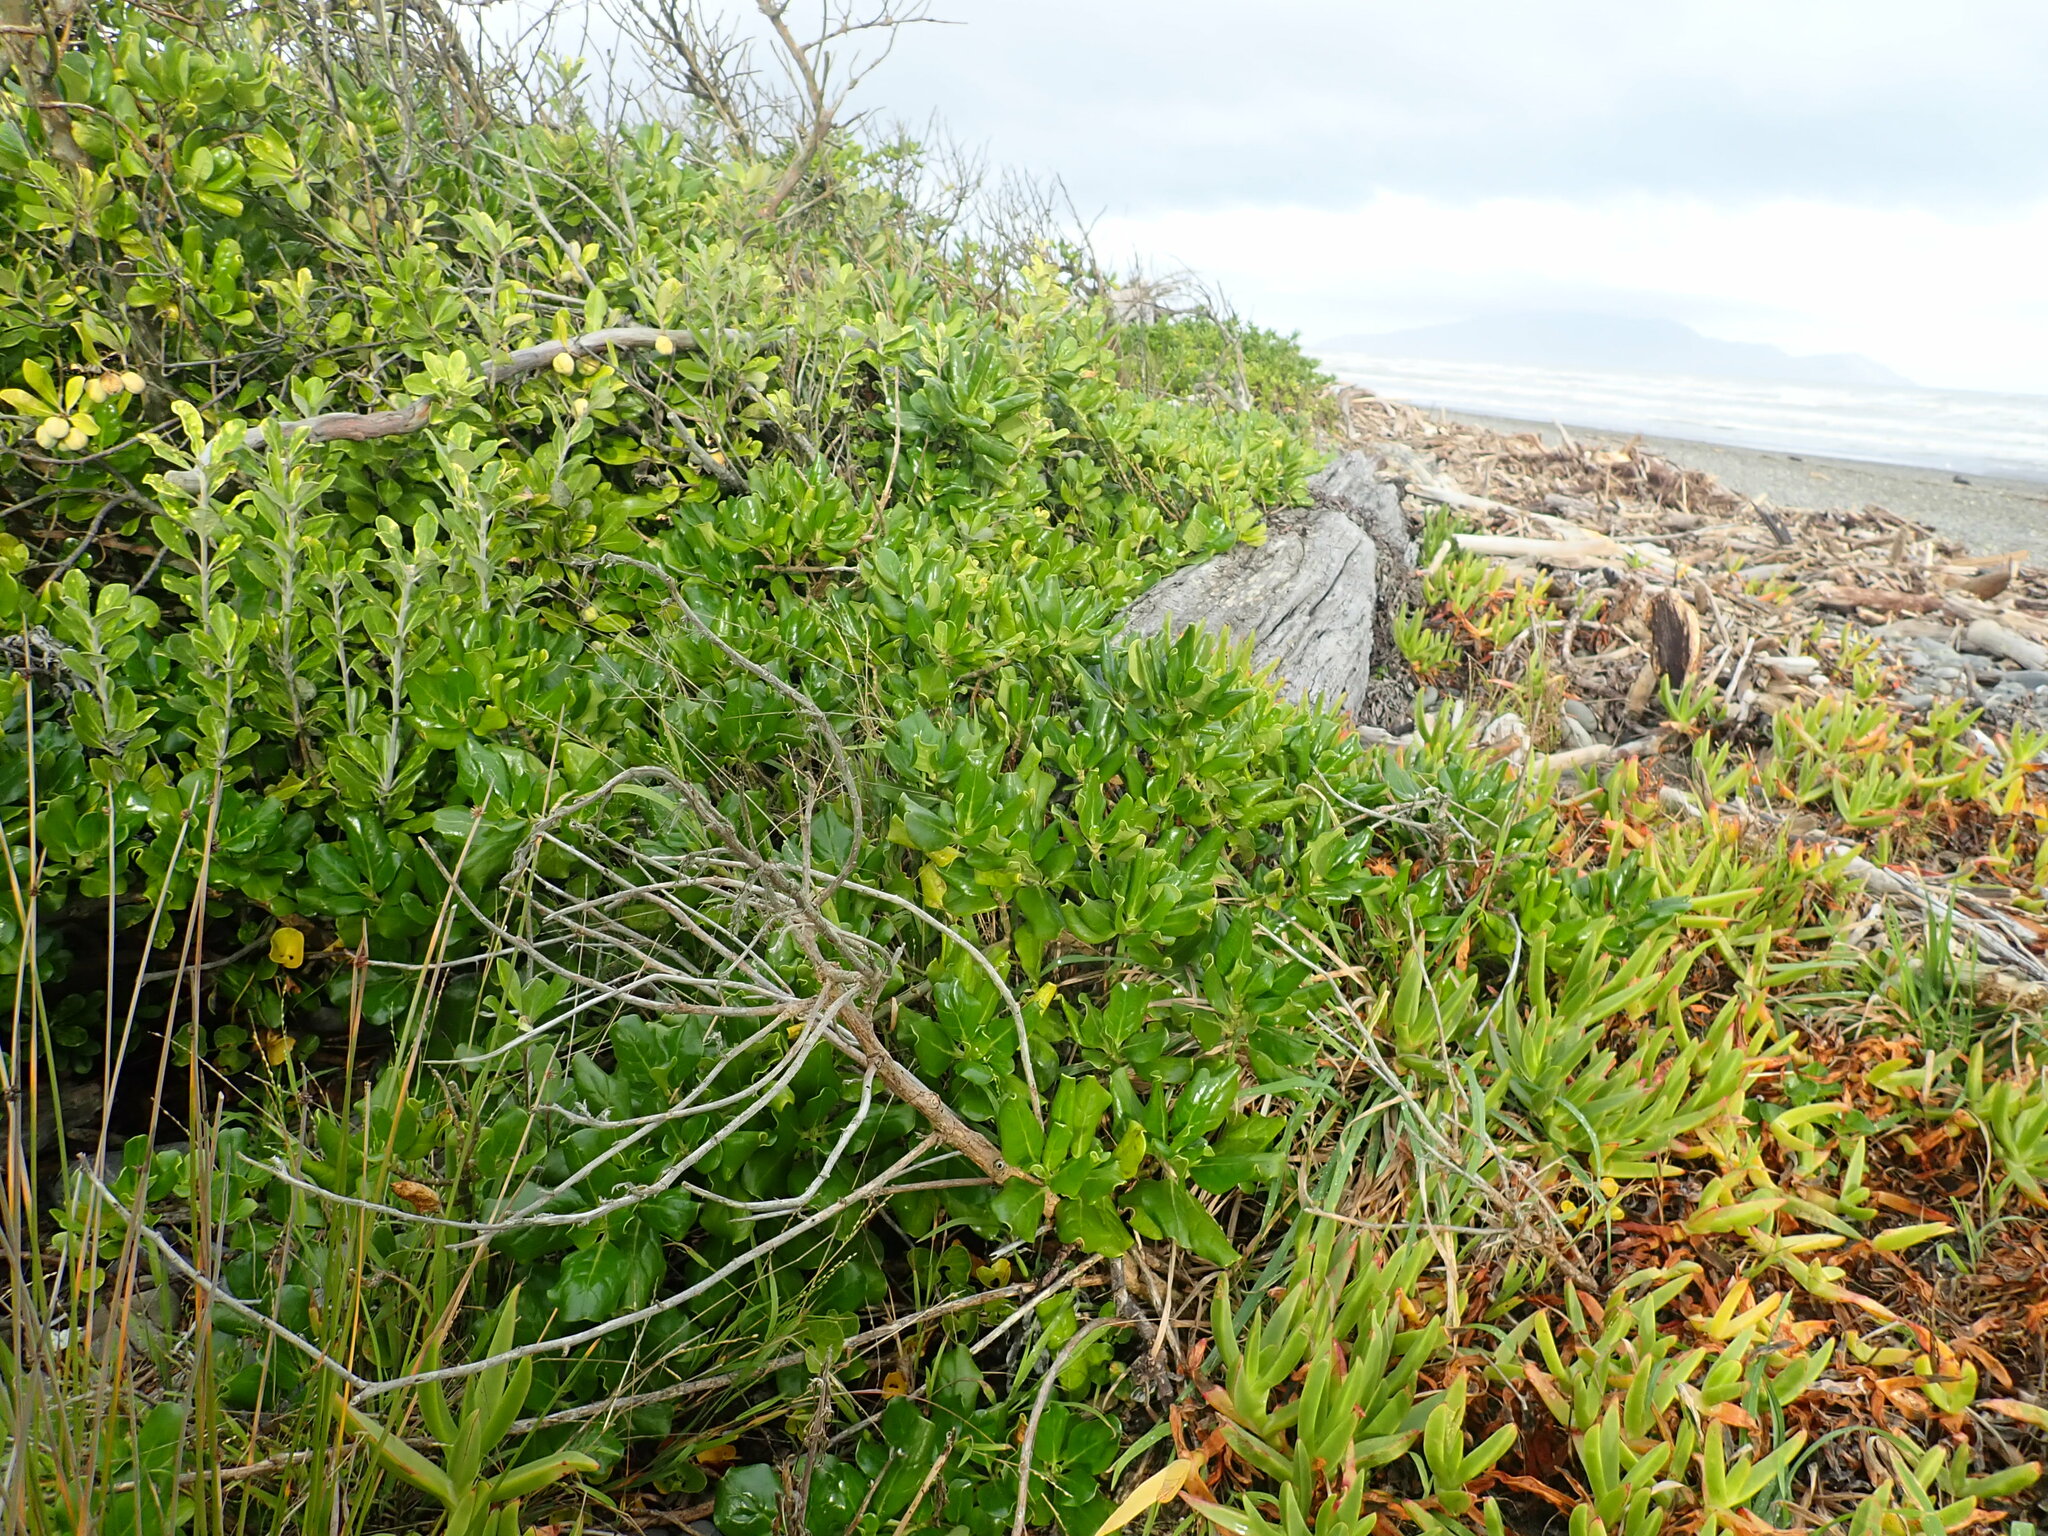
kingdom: Plantae
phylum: Tracheophyta
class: Magnoliopsida
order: Gentianales
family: Rubiaceae
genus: Coprosma
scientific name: Coprosma repens
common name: Tree bedstraw
